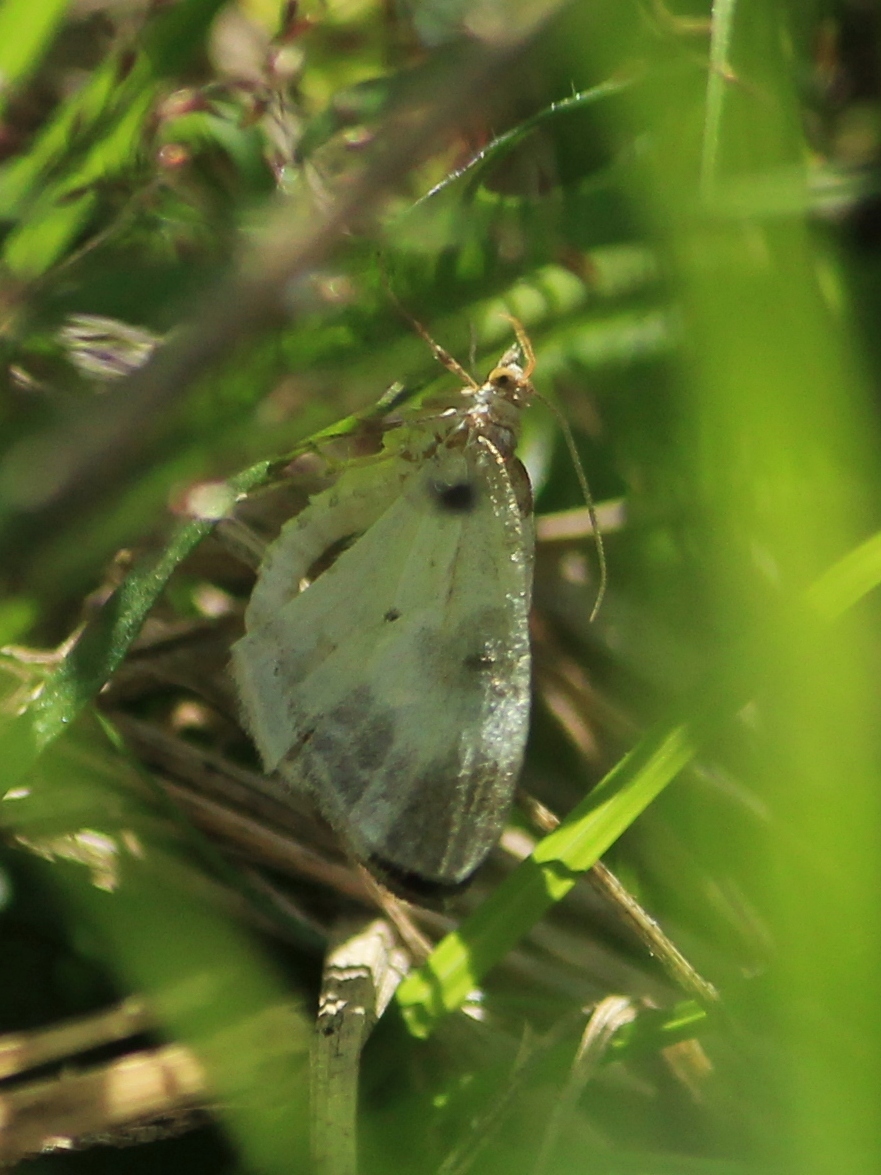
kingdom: Animalia
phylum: Arthropoda
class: Insecta
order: Lepidoptera
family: Geometridae
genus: Plemyria
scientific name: Plemyria rubiginata
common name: Blue-bordered carpet
